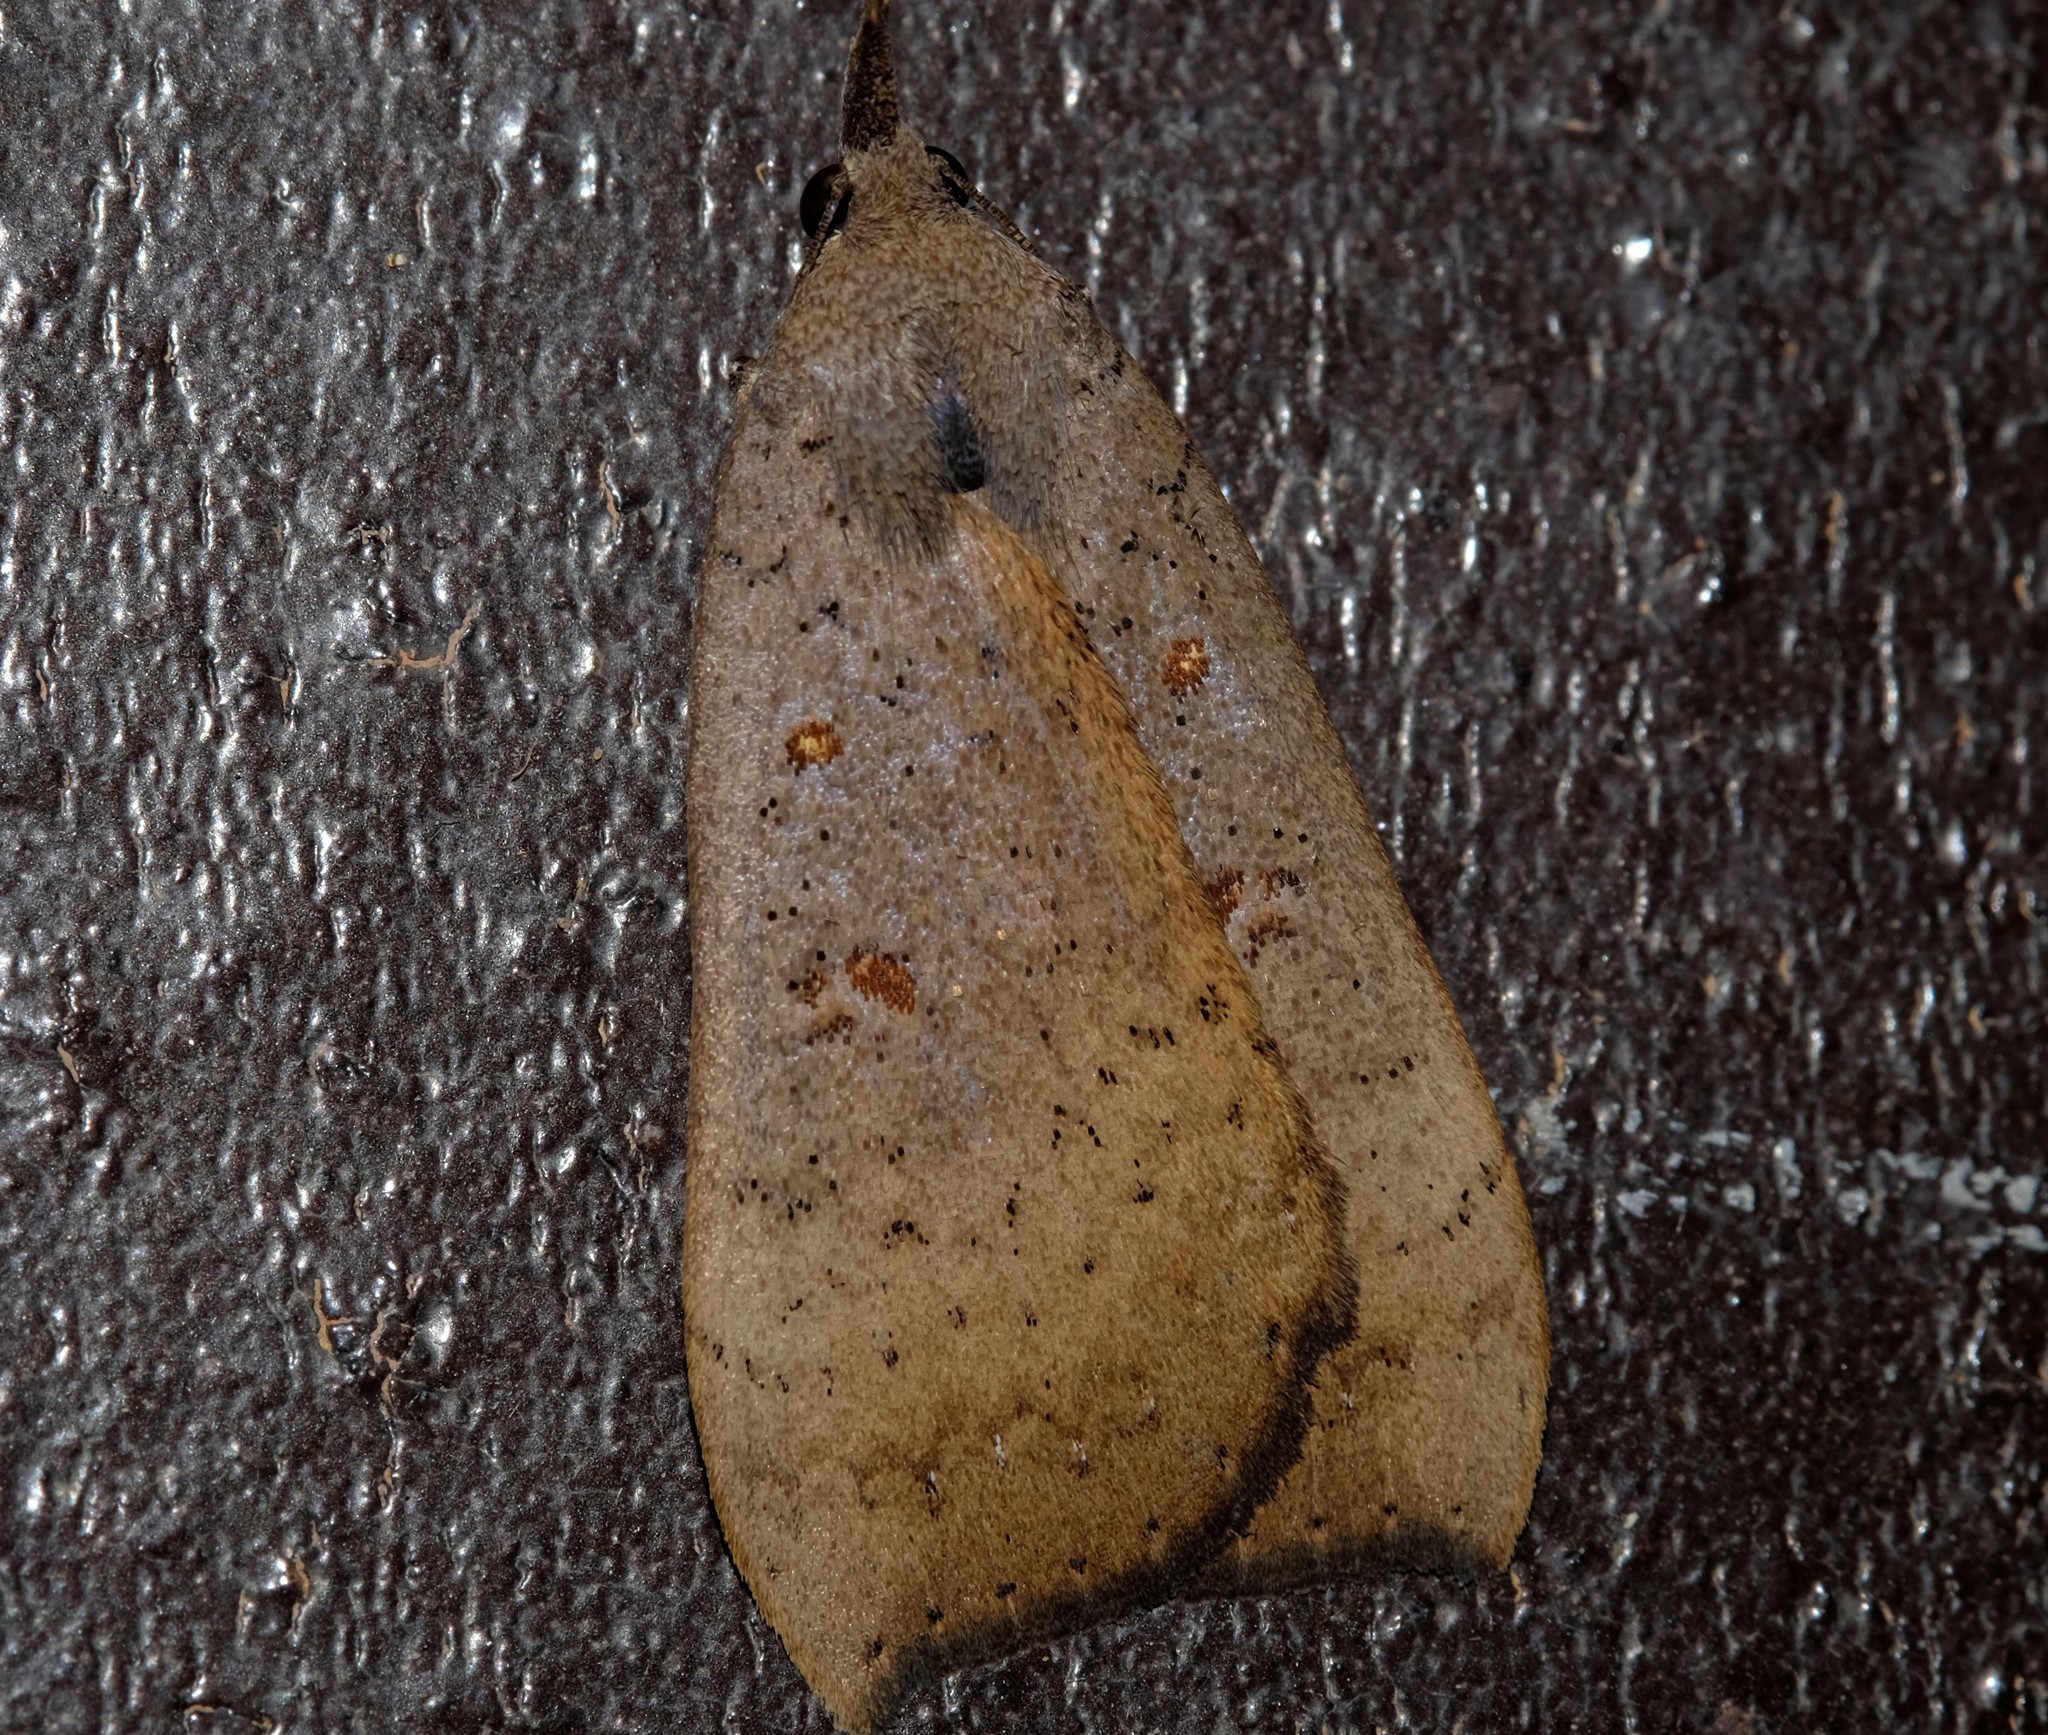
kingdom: Animalia
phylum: Arthropoda
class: Insecta
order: Lepidoptera
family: Erebidae
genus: Rhapsa
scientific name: Rhapsa suscitatalis
